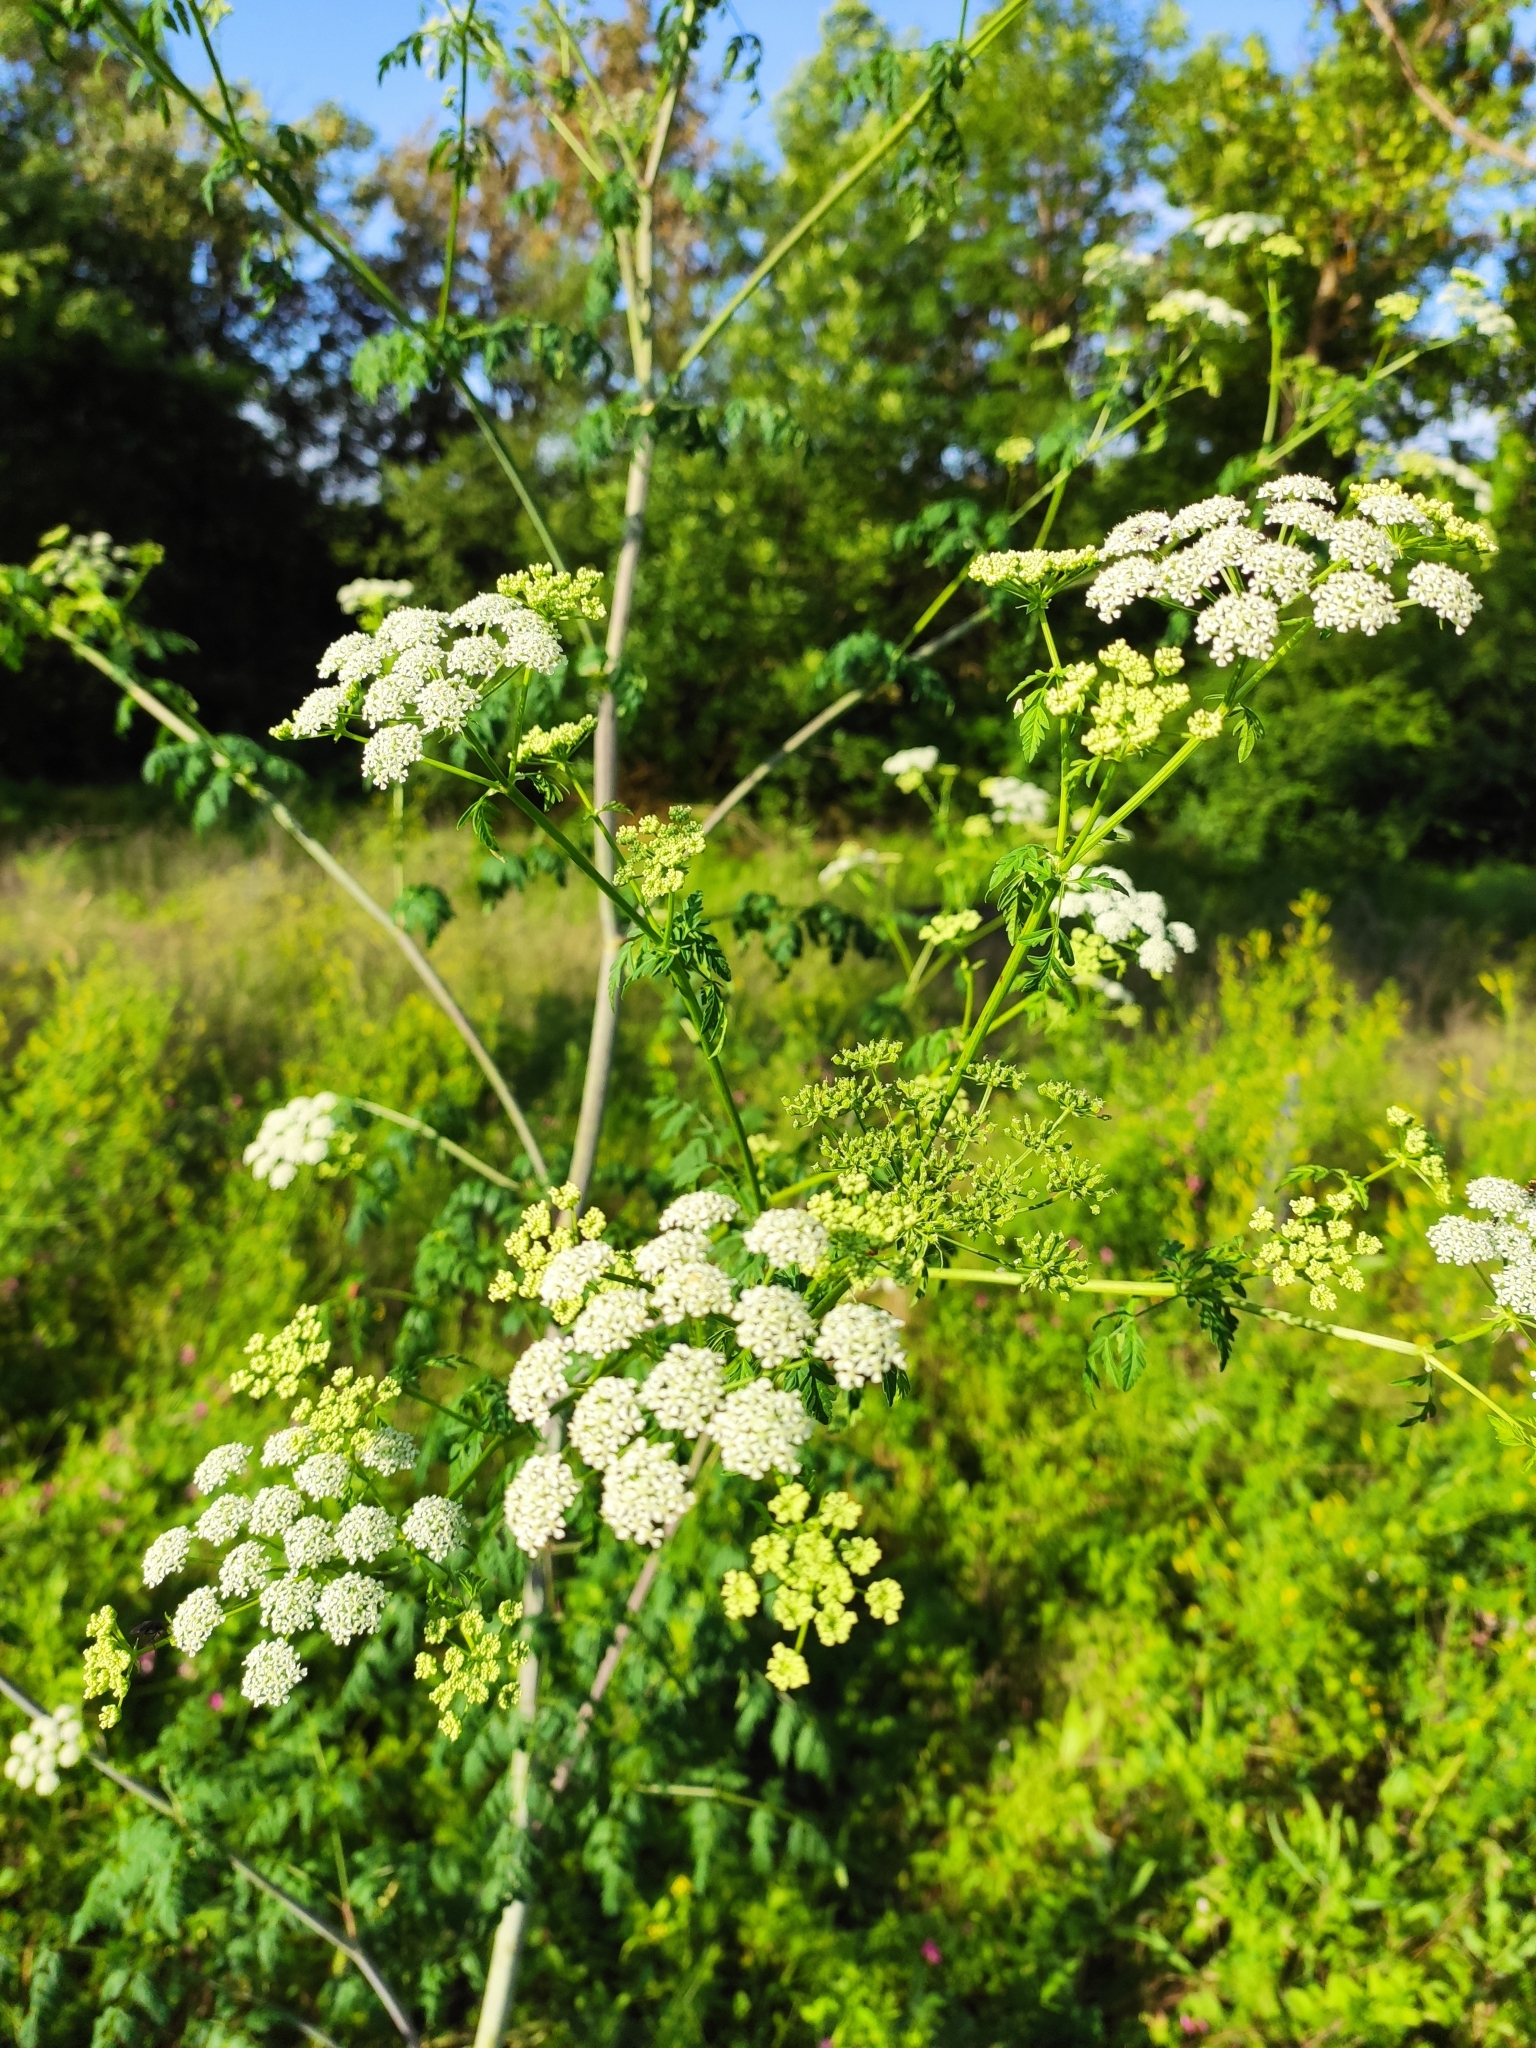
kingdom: Plantae
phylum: Tracheophyta
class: Magnoliopsida
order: Apiales
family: Apiaceae
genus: Conium
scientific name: Conium maculatum
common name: Hemlock
